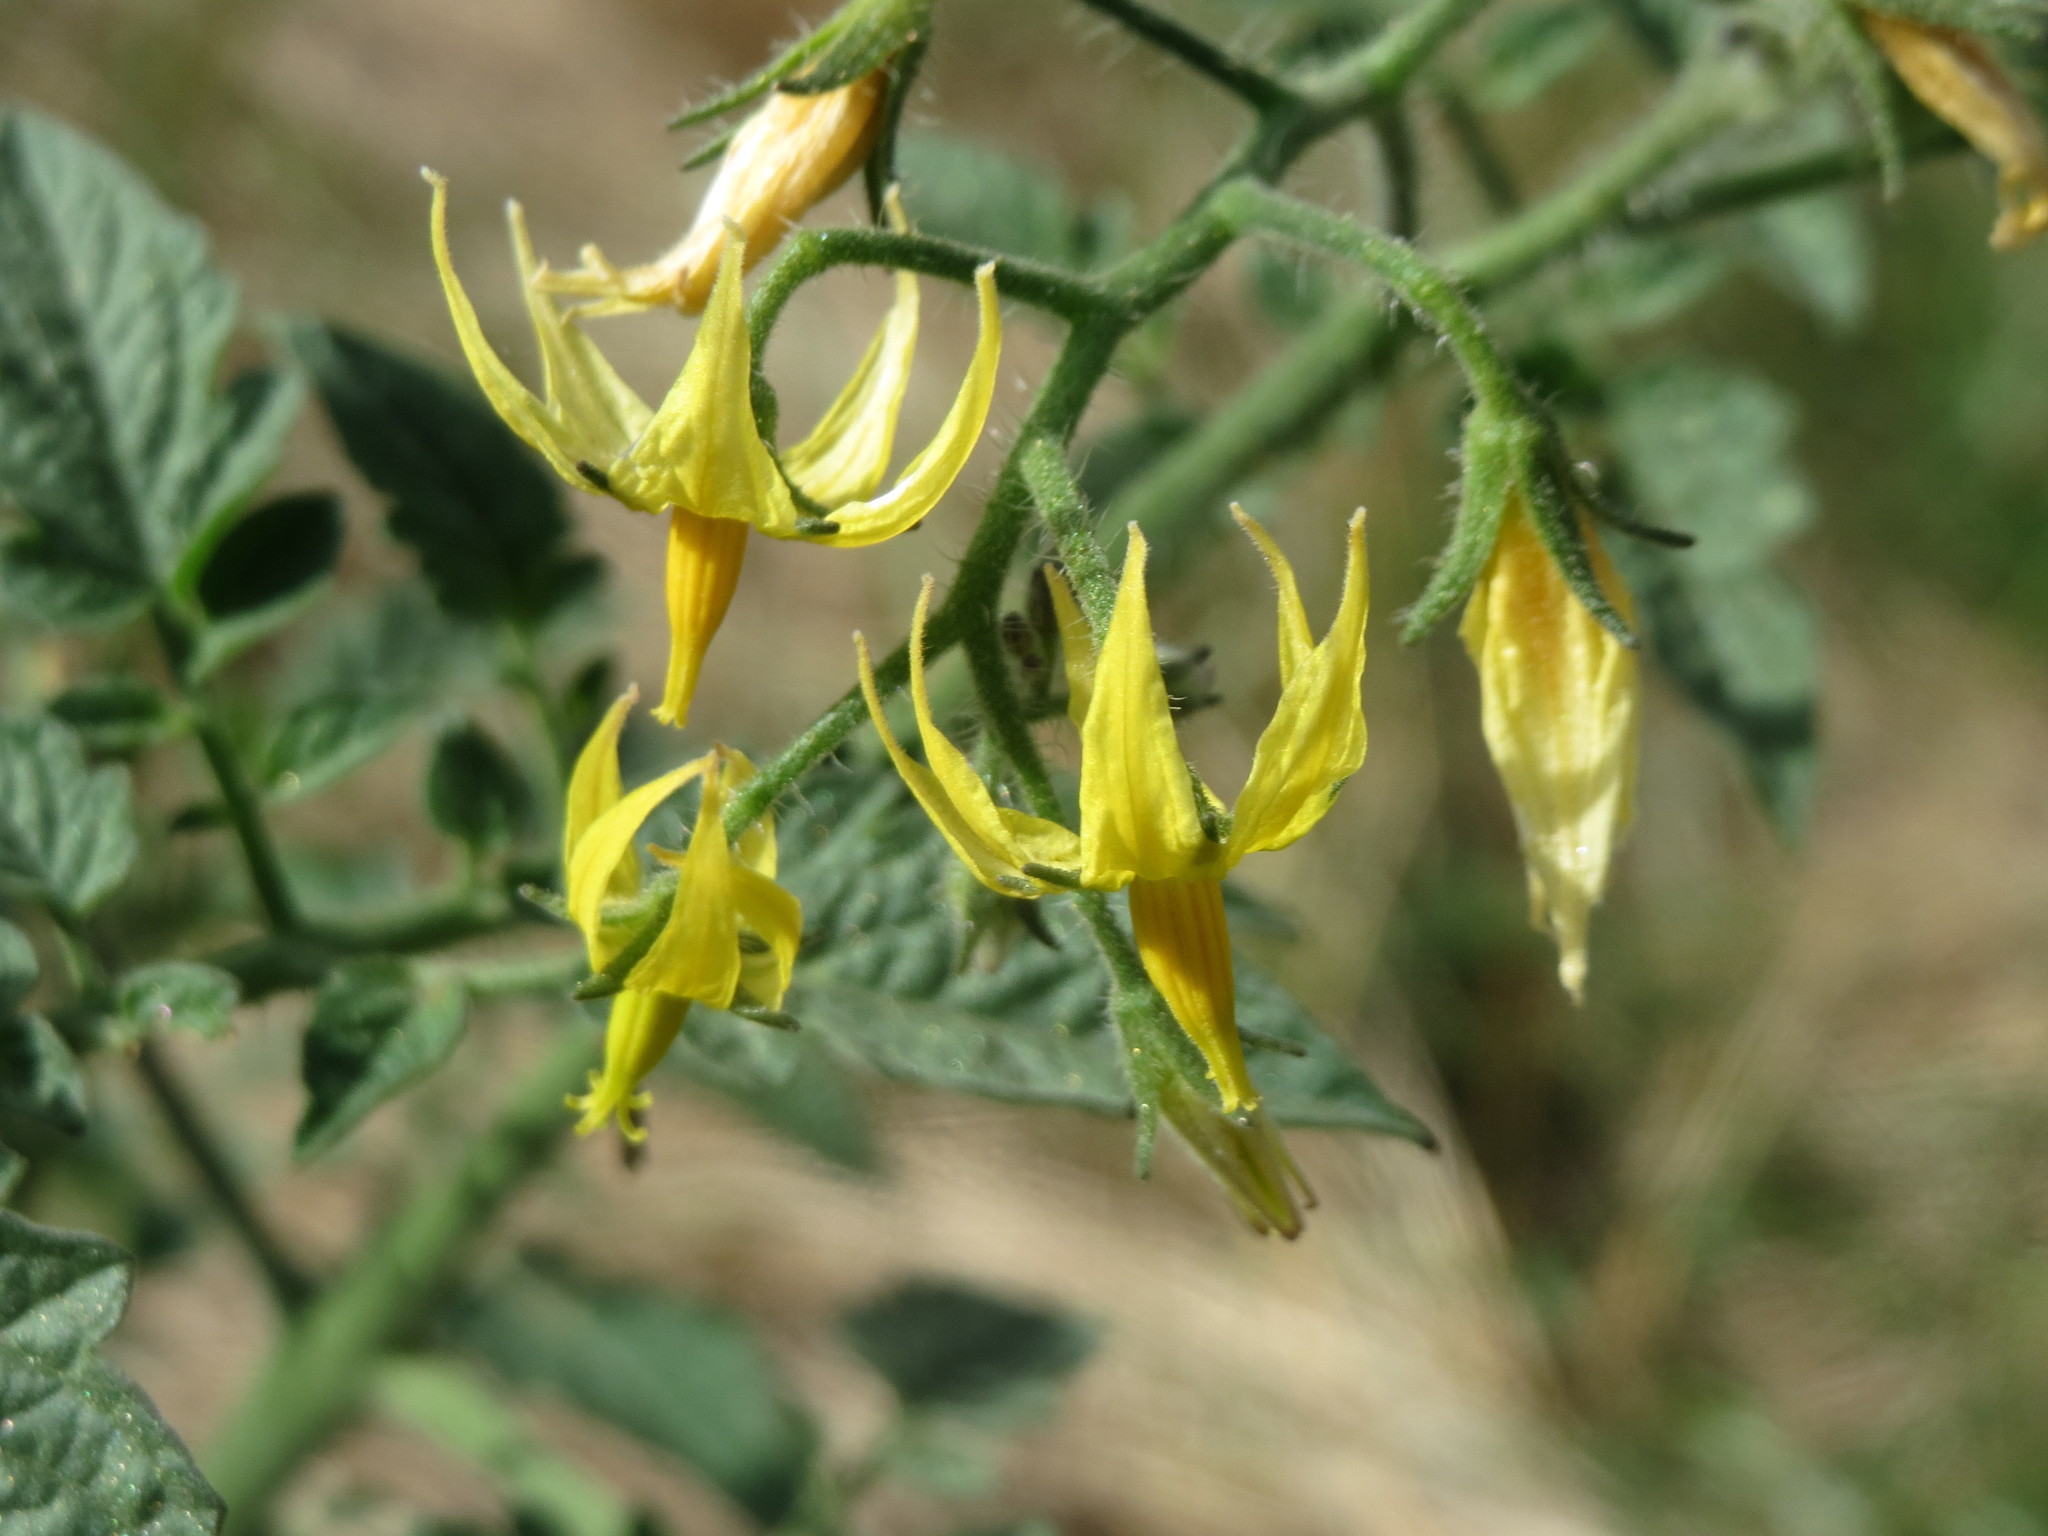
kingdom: Plantae
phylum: Tracheophyta
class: Magnoliopsida
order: Solanales
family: Solanaceae
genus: Solanum
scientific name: Solanum lycopersicum
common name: Garden tomato
